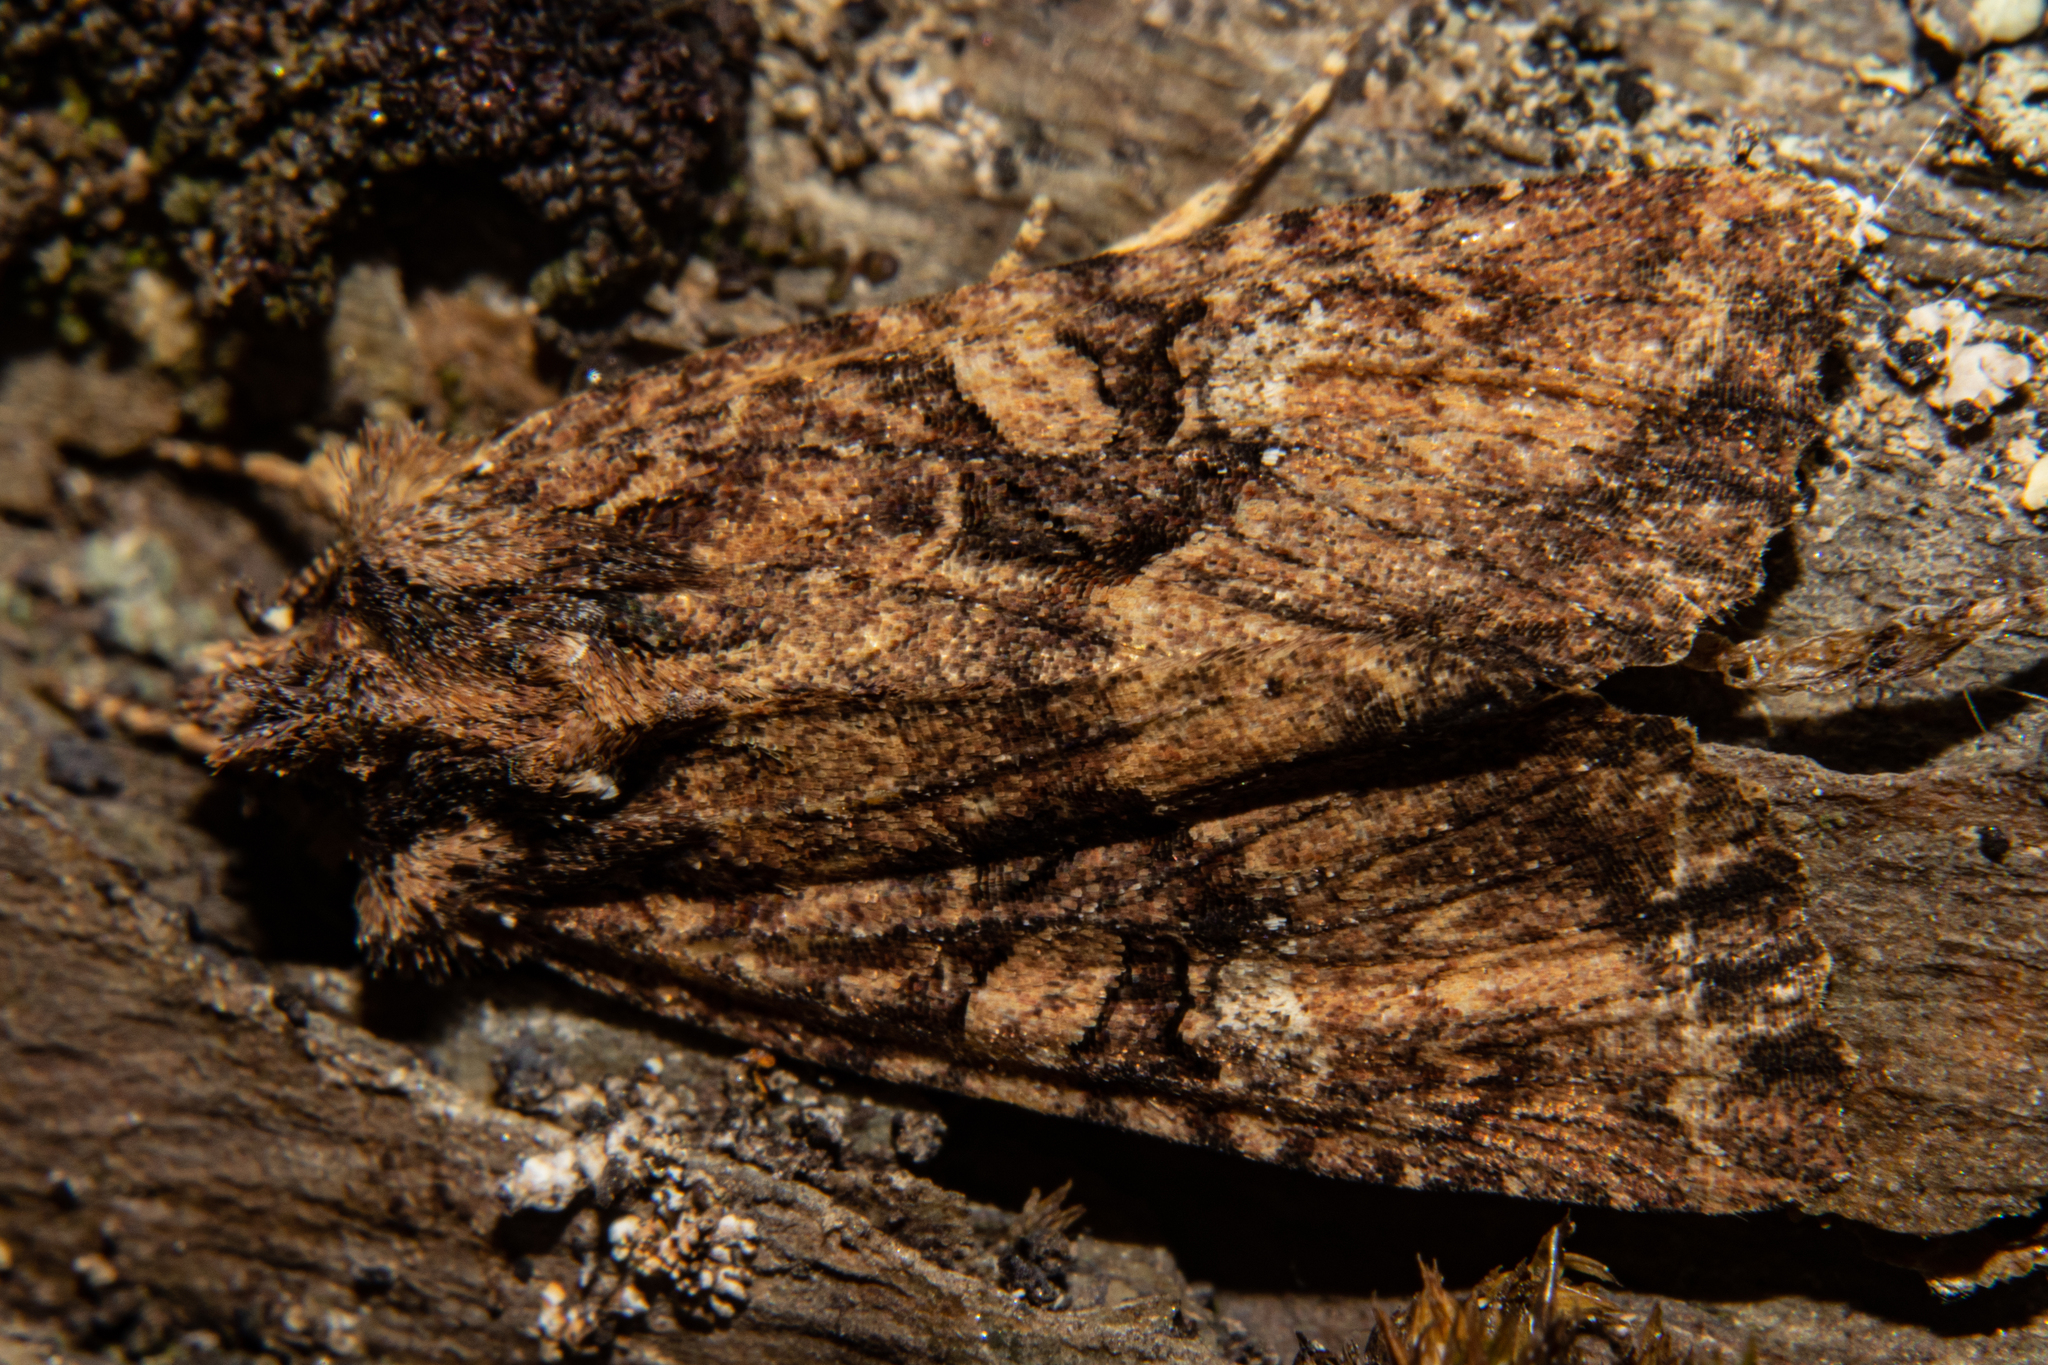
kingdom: Animalia
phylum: Arthropoda
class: Insecta
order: Lepidoptera
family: Noctuidae
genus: Meterana
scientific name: Meterana ochthistis
